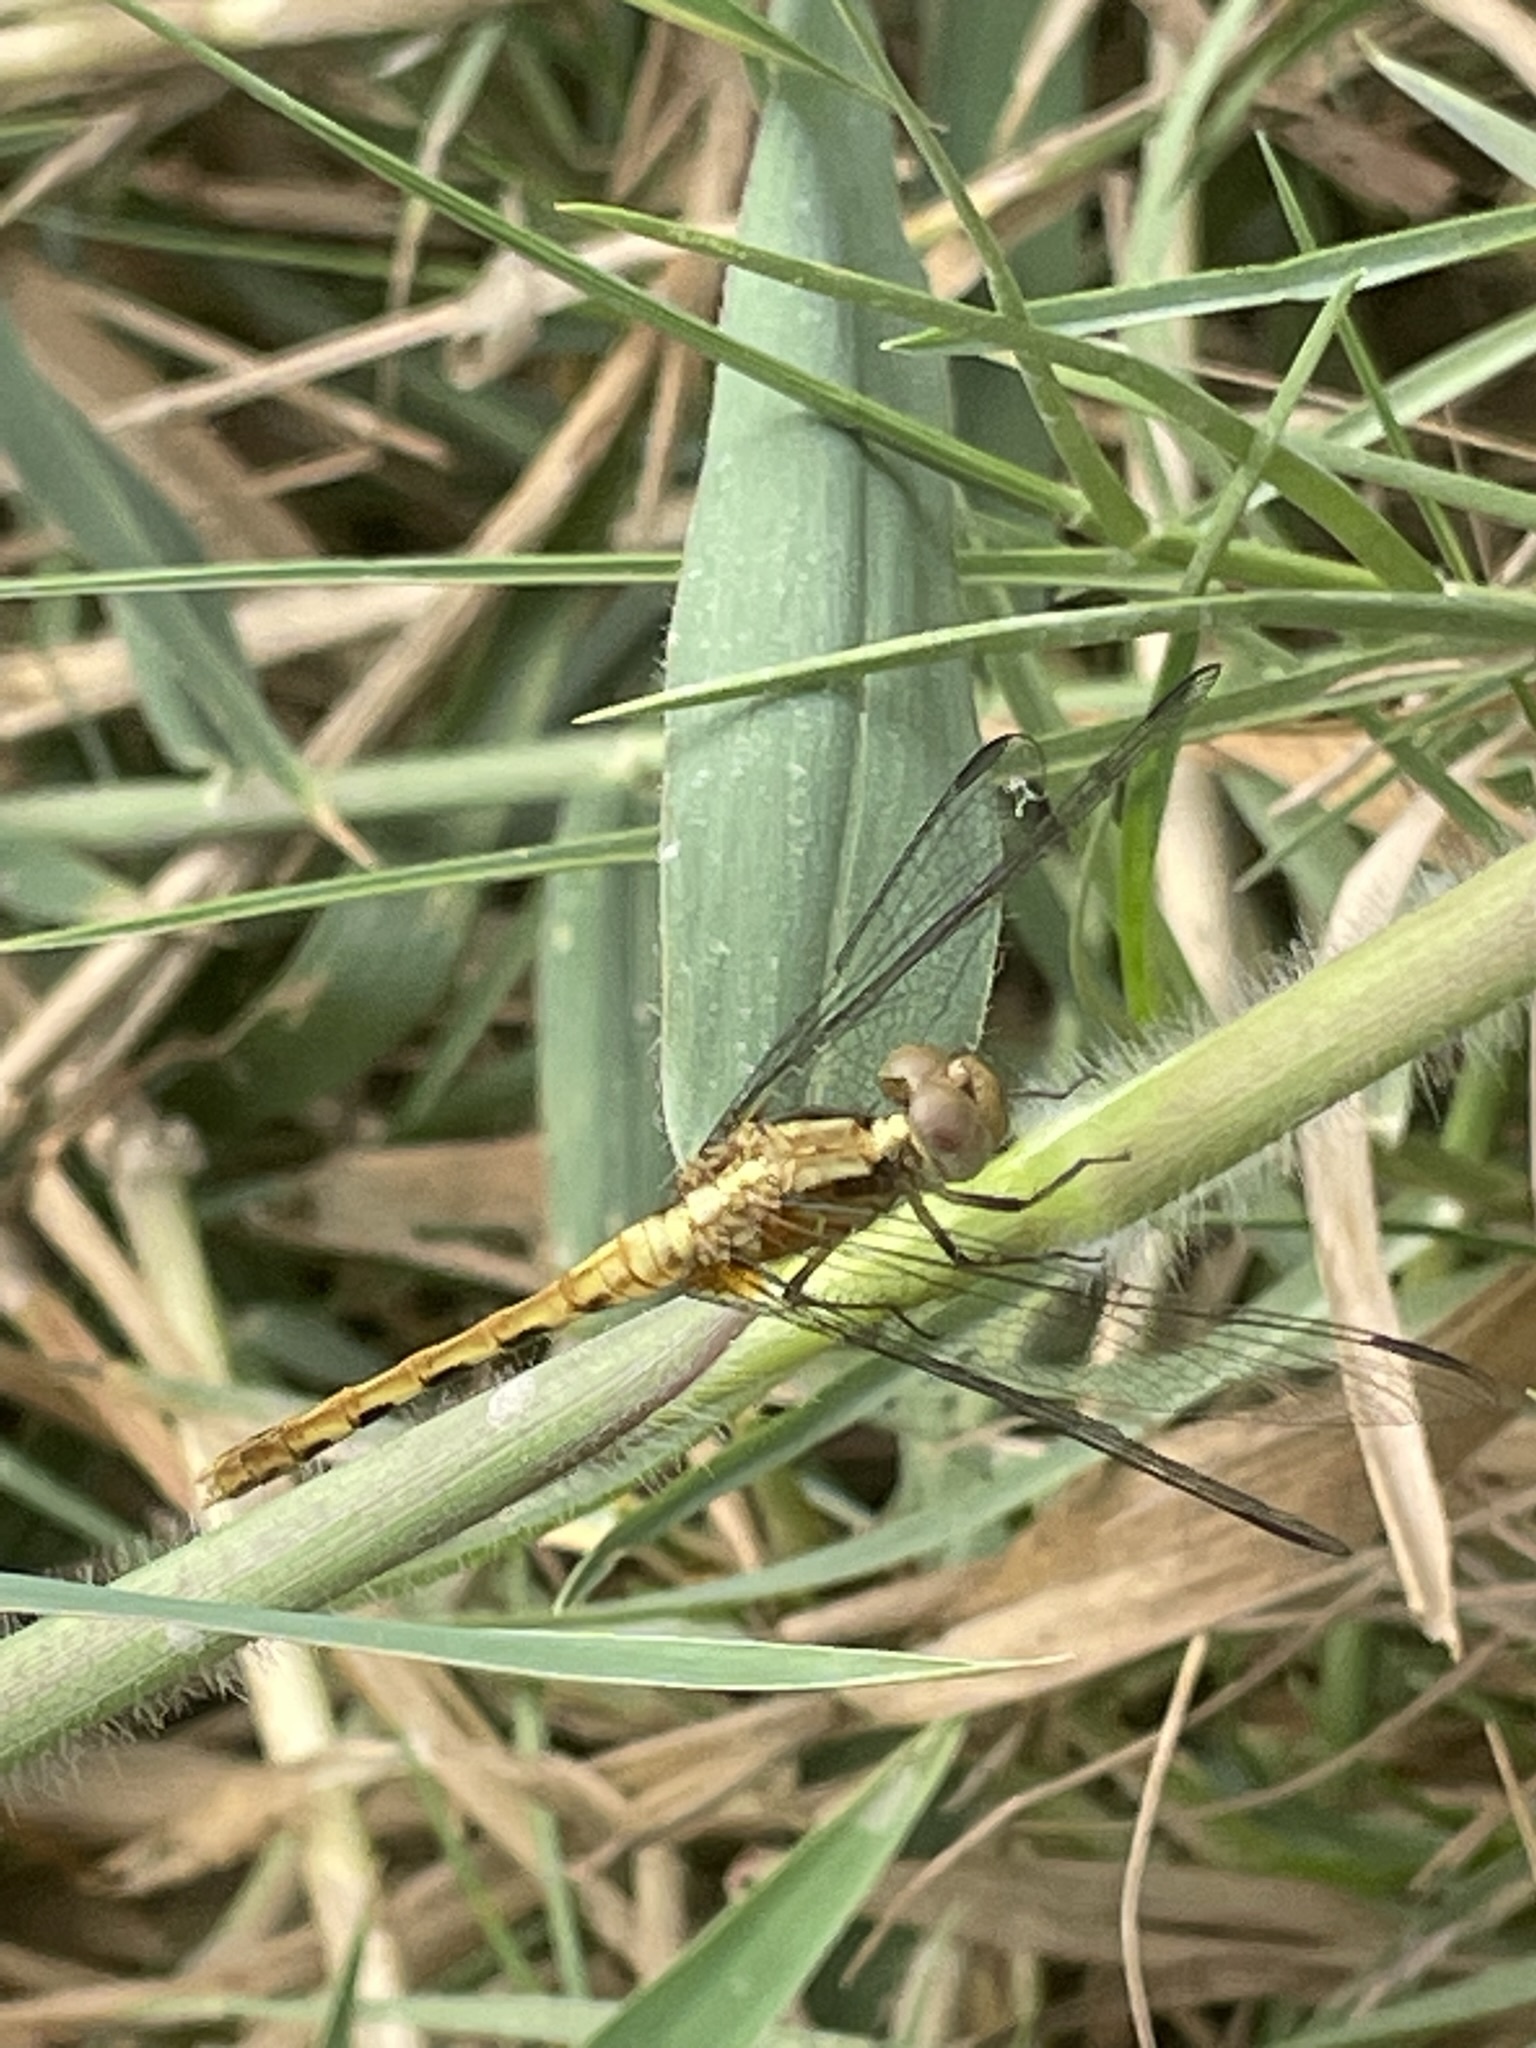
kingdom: Animalia
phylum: Arthropoda
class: Insecta
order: Odonata
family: Libellulidae
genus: Erythrodiplax
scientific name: Erythrodiplax cleopatra
